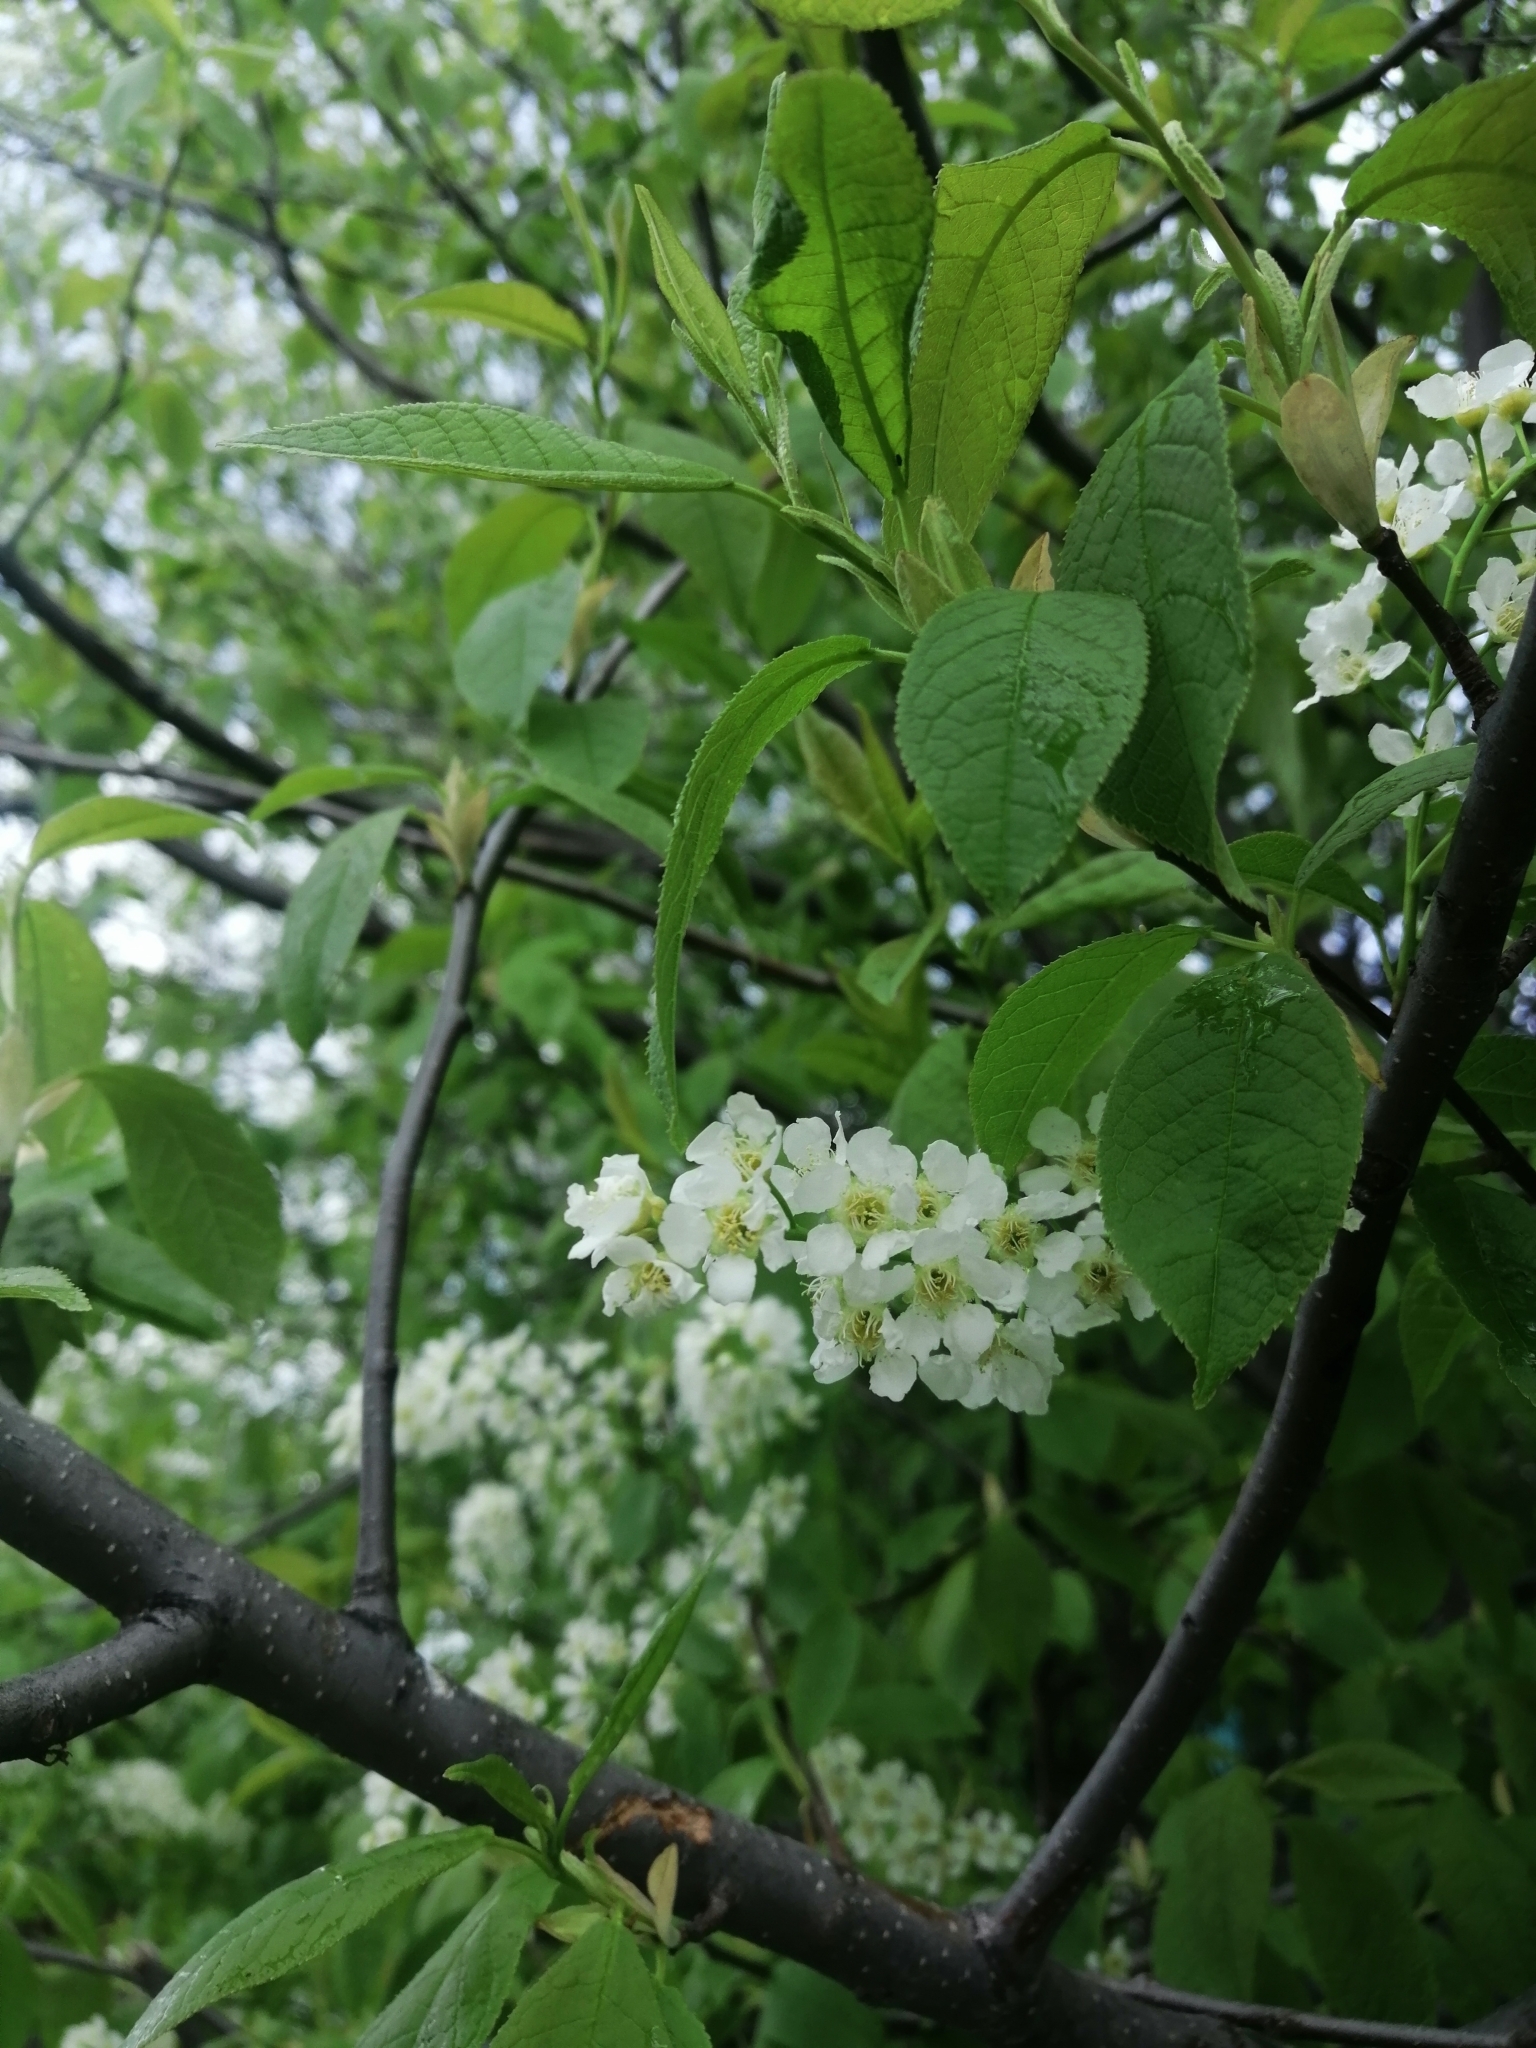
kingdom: Plantae
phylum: Tracheophyta
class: Magnoliopsida
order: Rosales
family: Rosaceae
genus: Prunus
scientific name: Prunus padus
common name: Bird cherry
